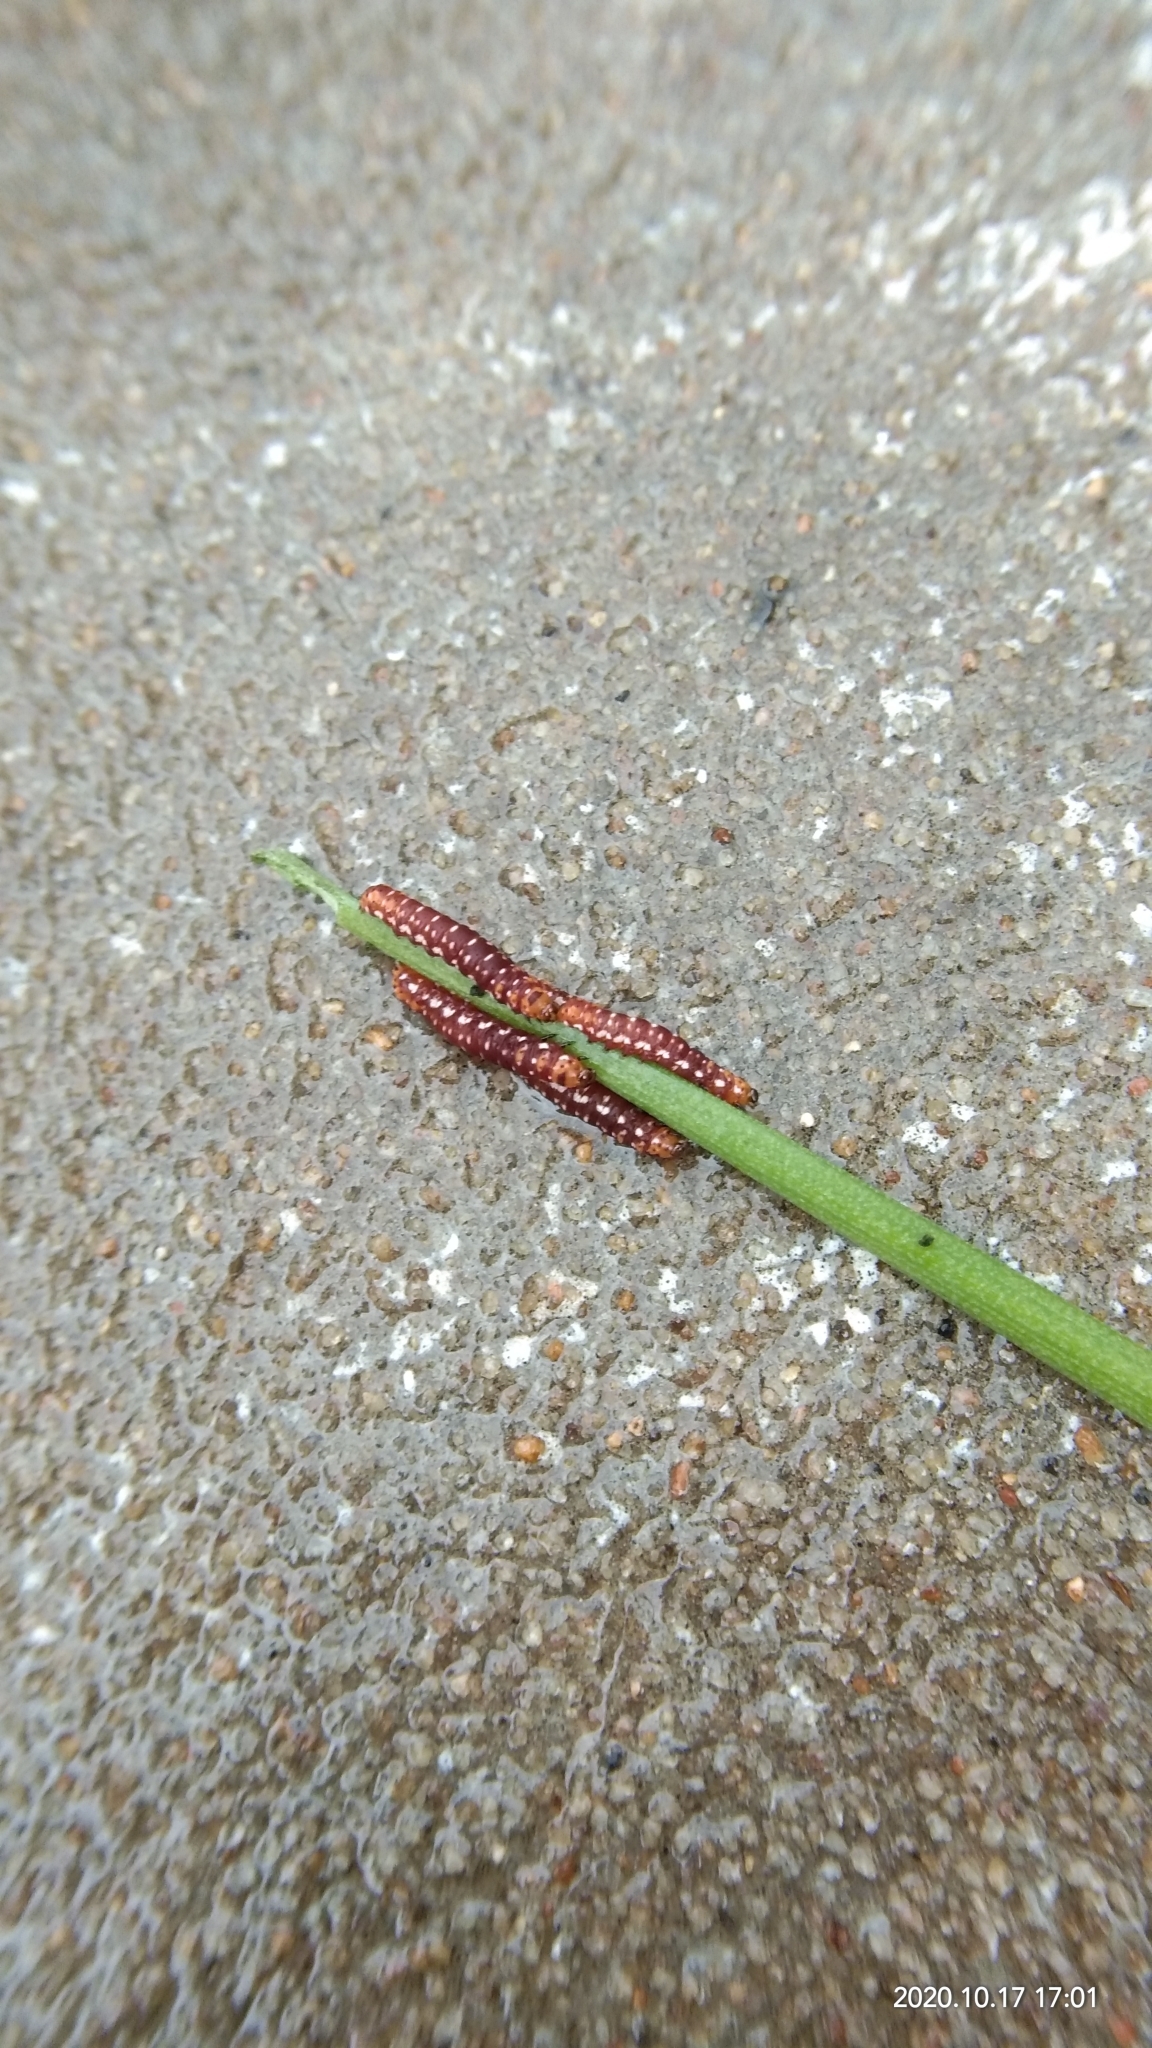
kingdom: Animalia
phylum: Arthropoda
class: Insecta
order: Lepidoptera
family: Noctuidae
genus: Polytela
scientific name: Polytela gloriosae
